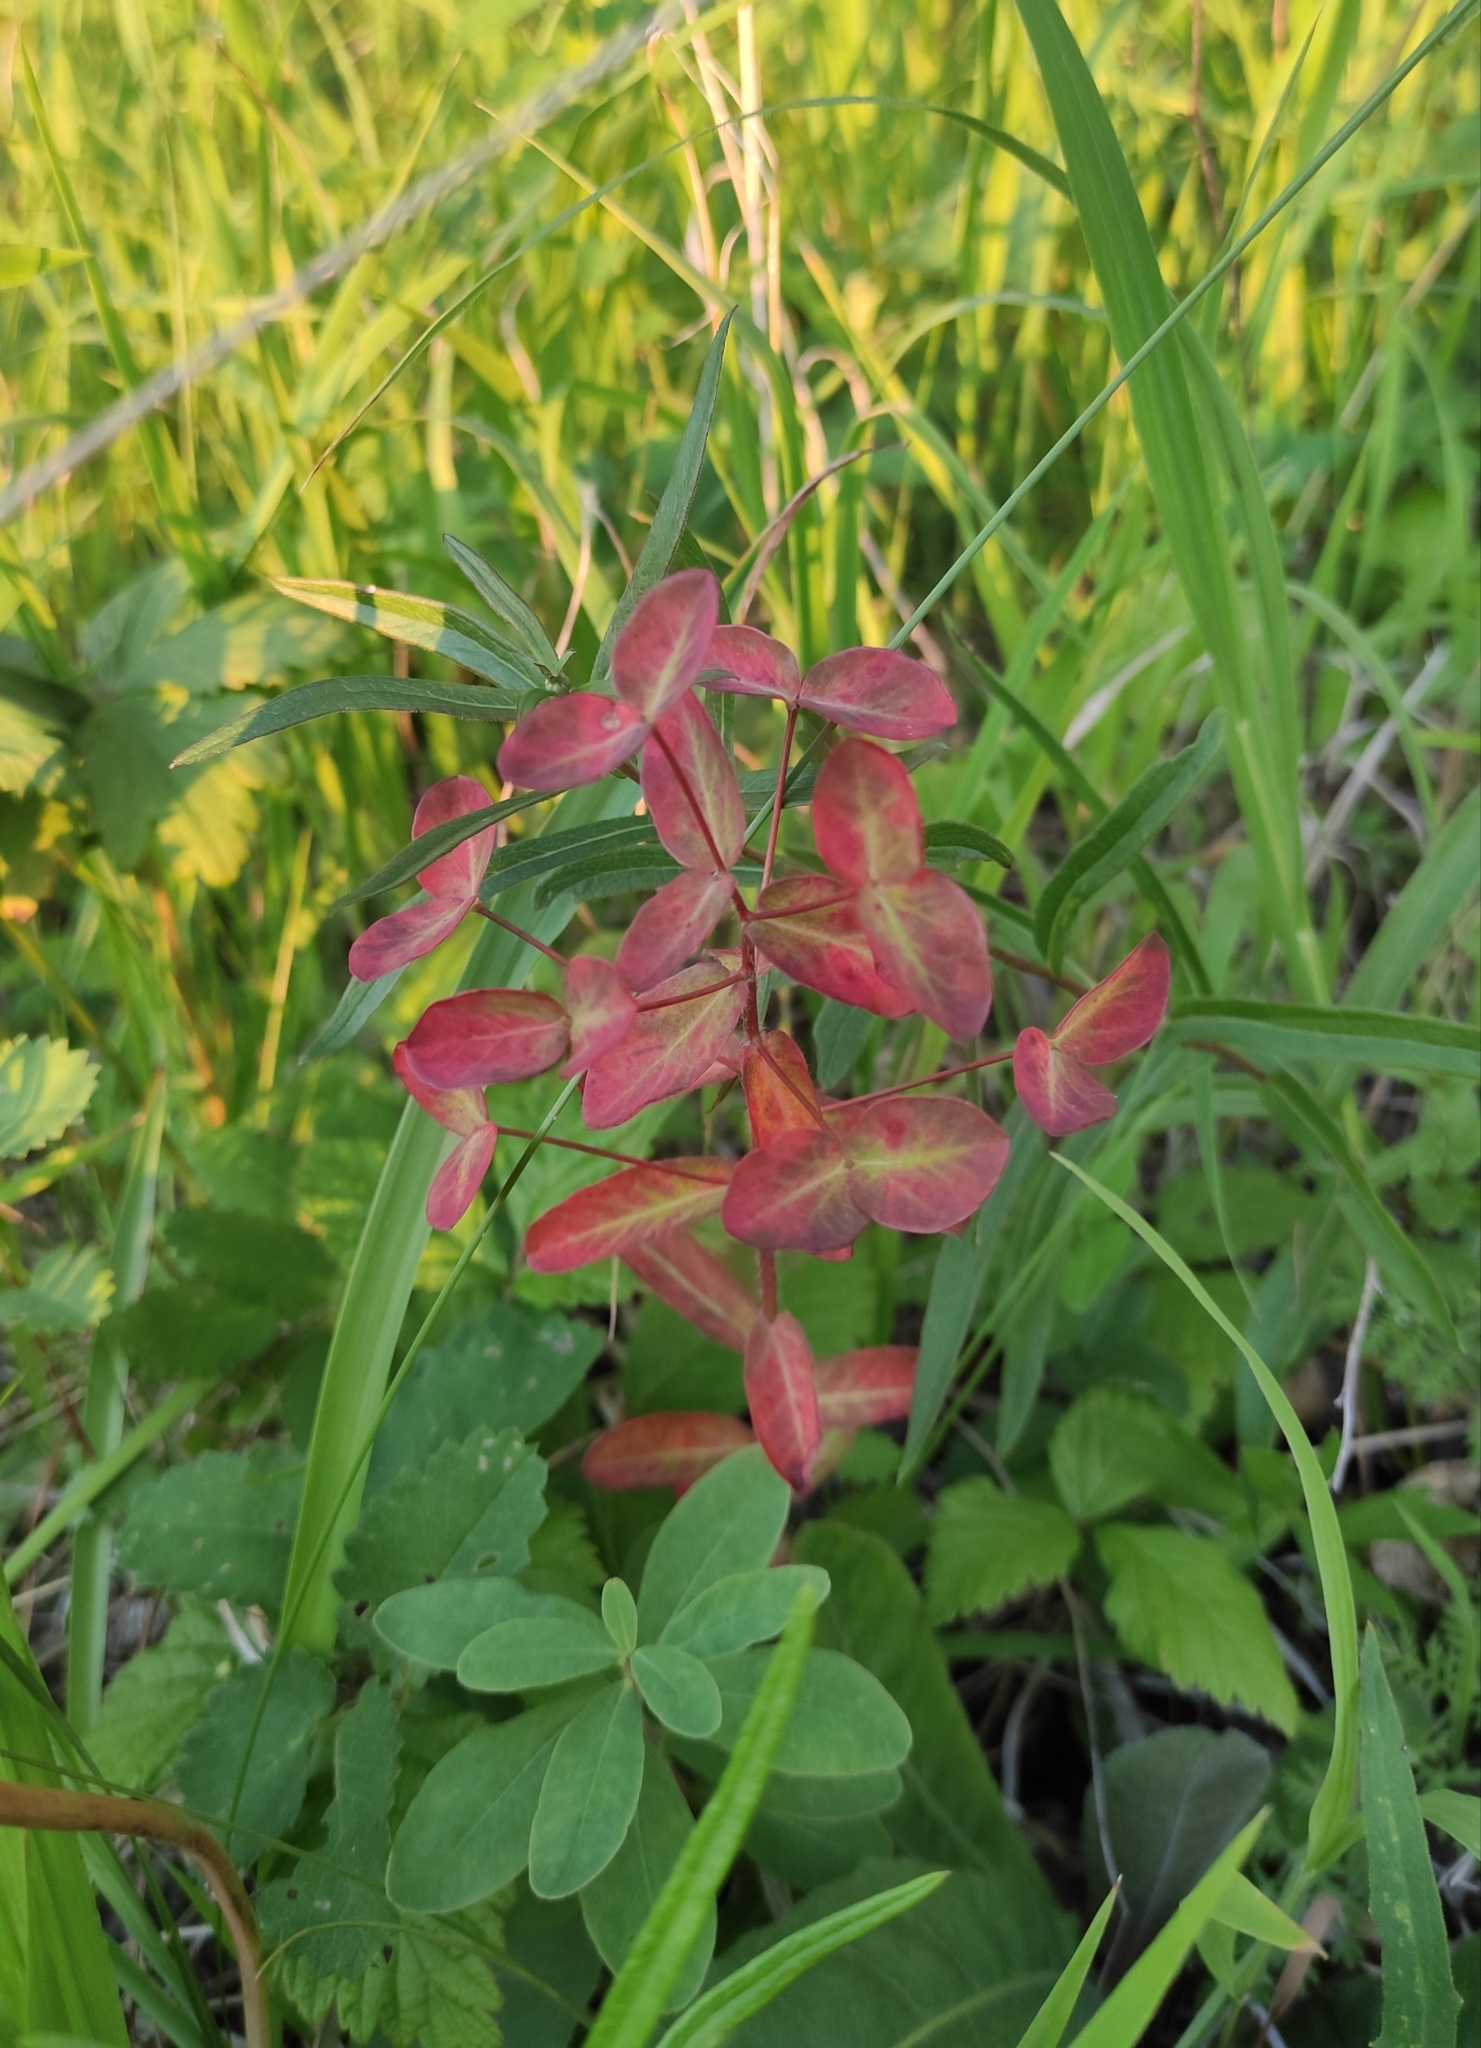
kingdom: Plantae
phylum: Tracheophyta
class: Magnoliopsida
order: Malpighiales
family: Euphorbiaceae
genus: Euphorbia
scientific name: Euphorbia jenisseiensis
